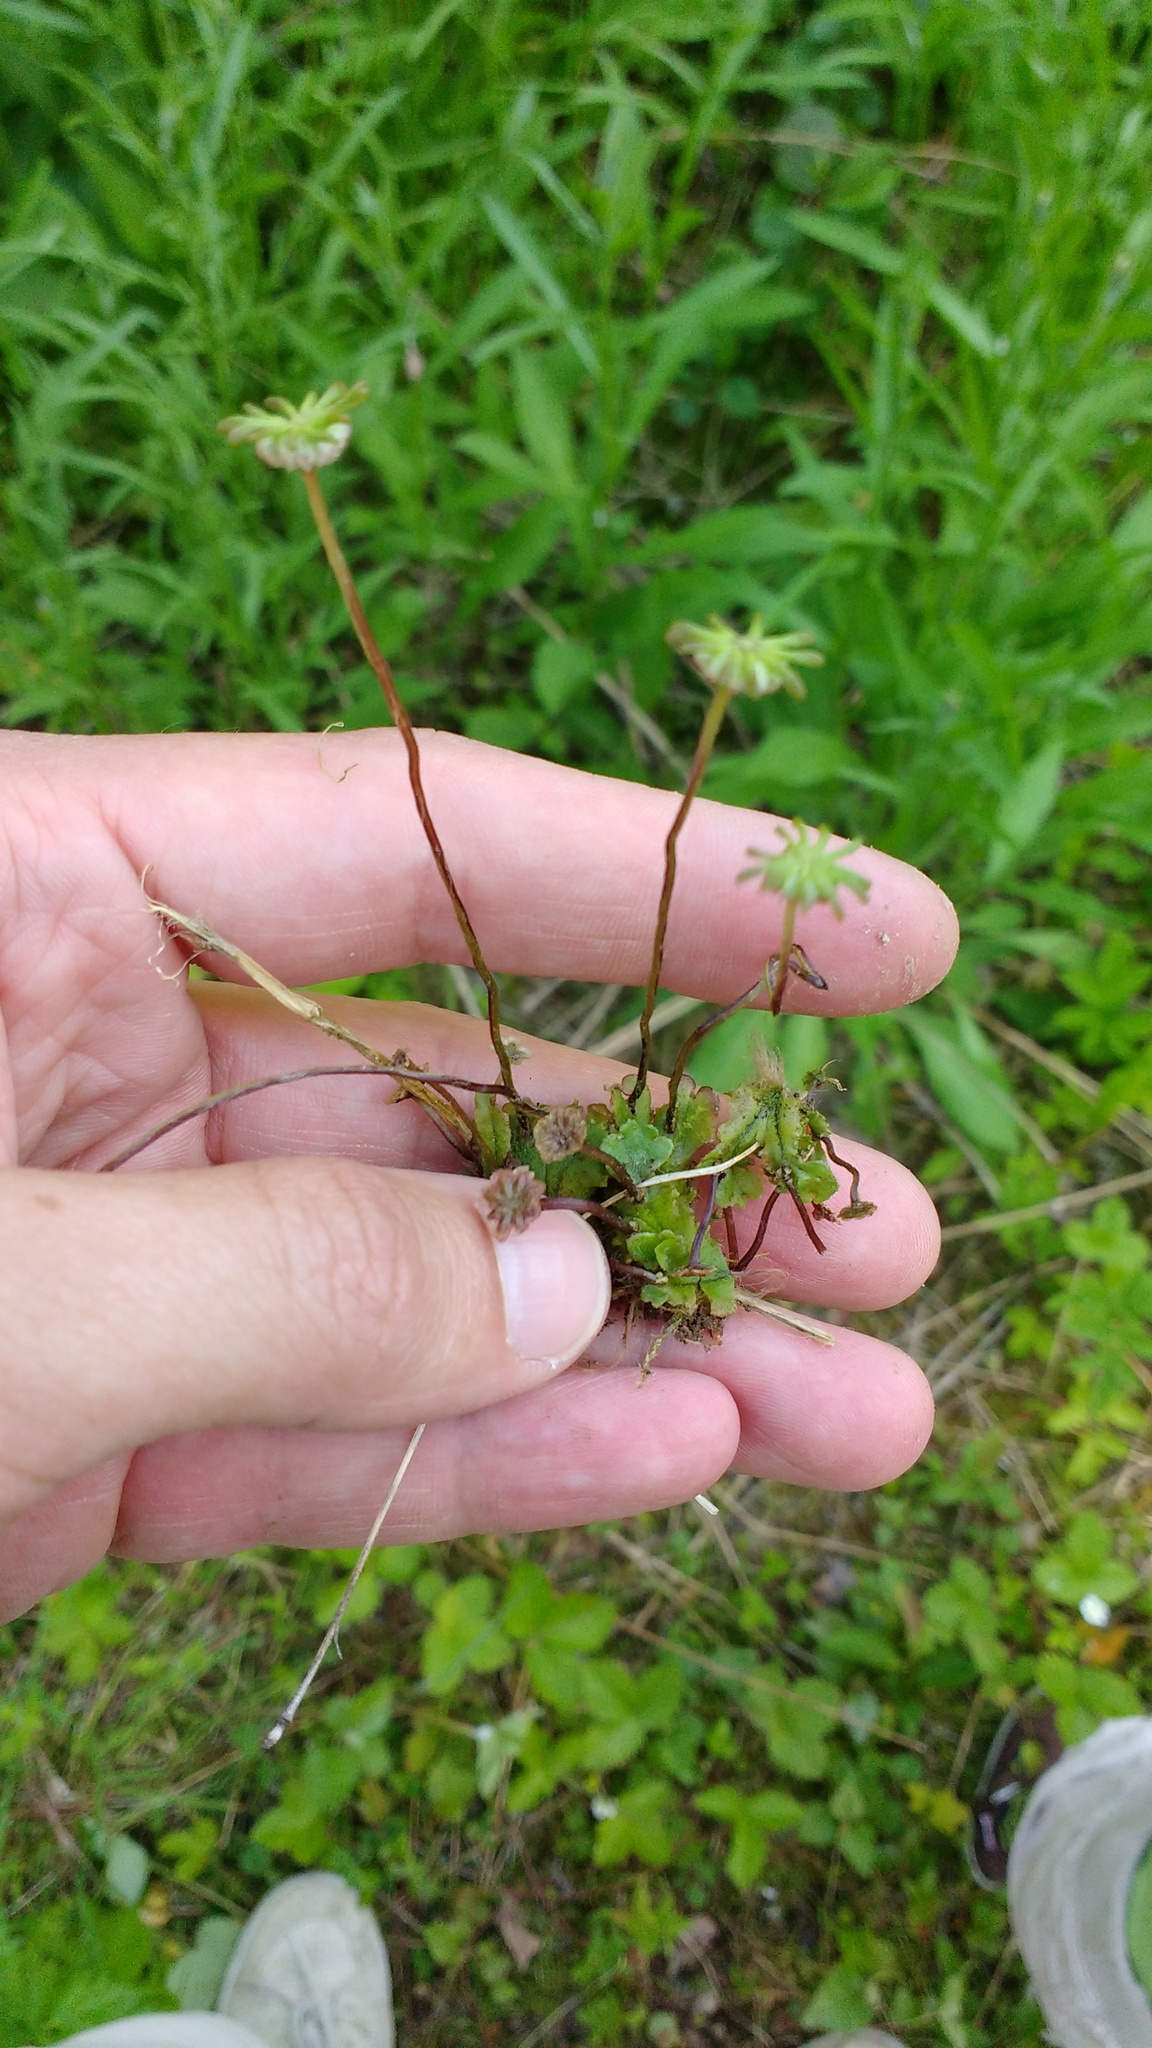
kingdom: Plantae
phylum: Marchantiophyta
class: Marchantiopsida
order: Marchantiales
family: Marchantiaceae
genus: Marchantia
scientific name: Marchantia polymorpha
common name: Common liverwort
